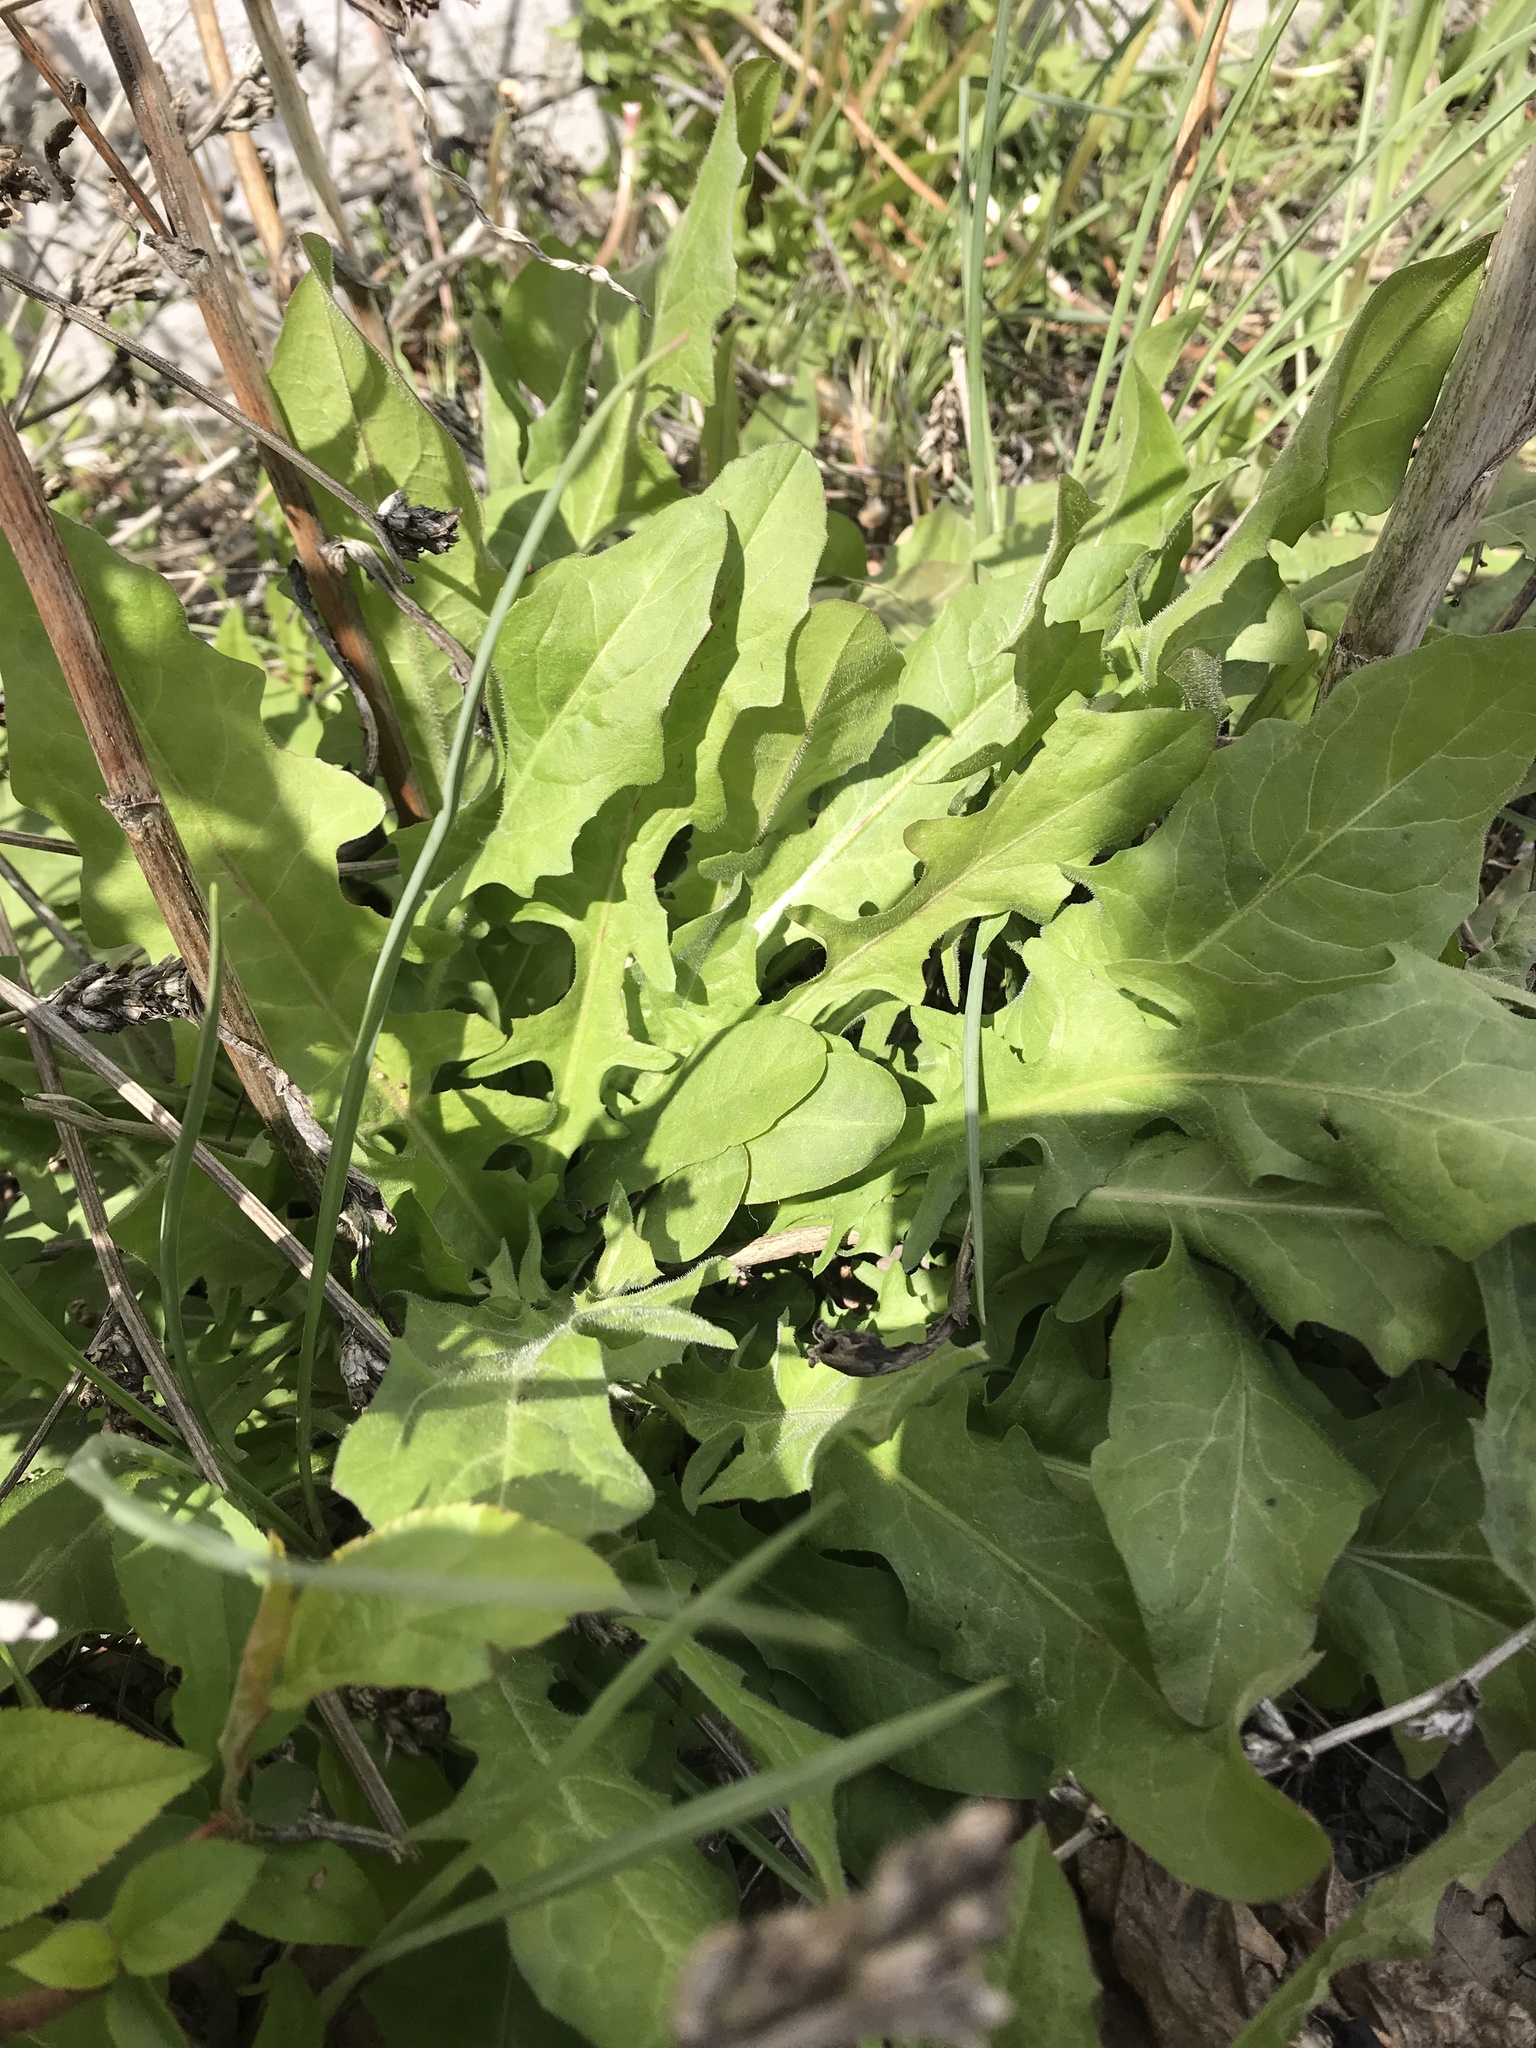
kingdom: Plantae
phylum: Tracheophyta
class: Magnoliopsida
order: Asterales
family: Asteraceae
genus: Taraxacum
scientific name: Taraxacum officinale
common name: Common dandelion
